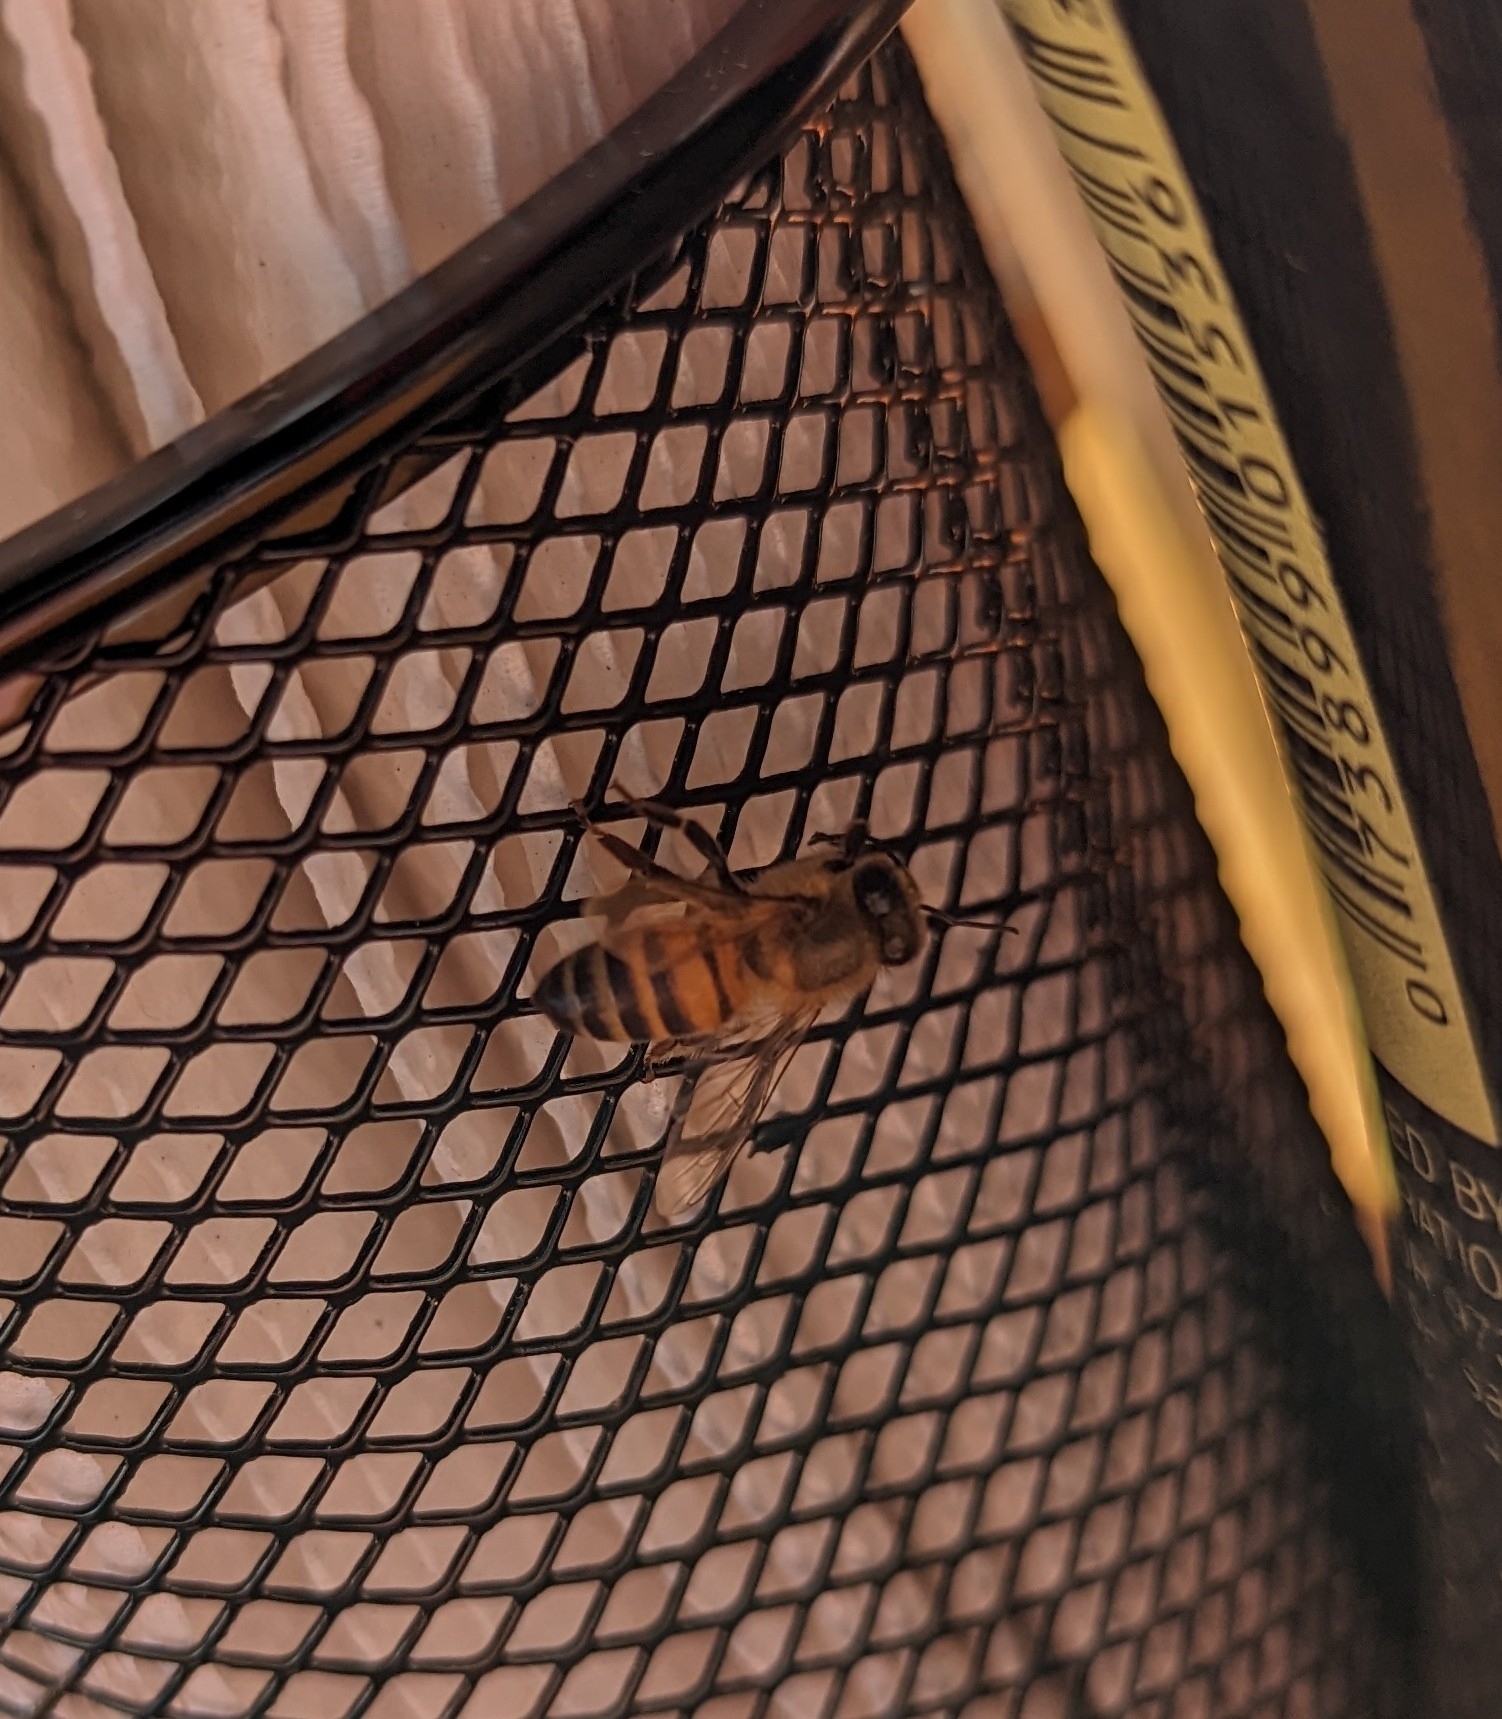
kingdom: Animalia
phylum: Arthropoda
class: Insecta
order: Hymenoptera
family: Apidae
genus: Apis
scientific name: Apis mellifera
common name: Honey bee
